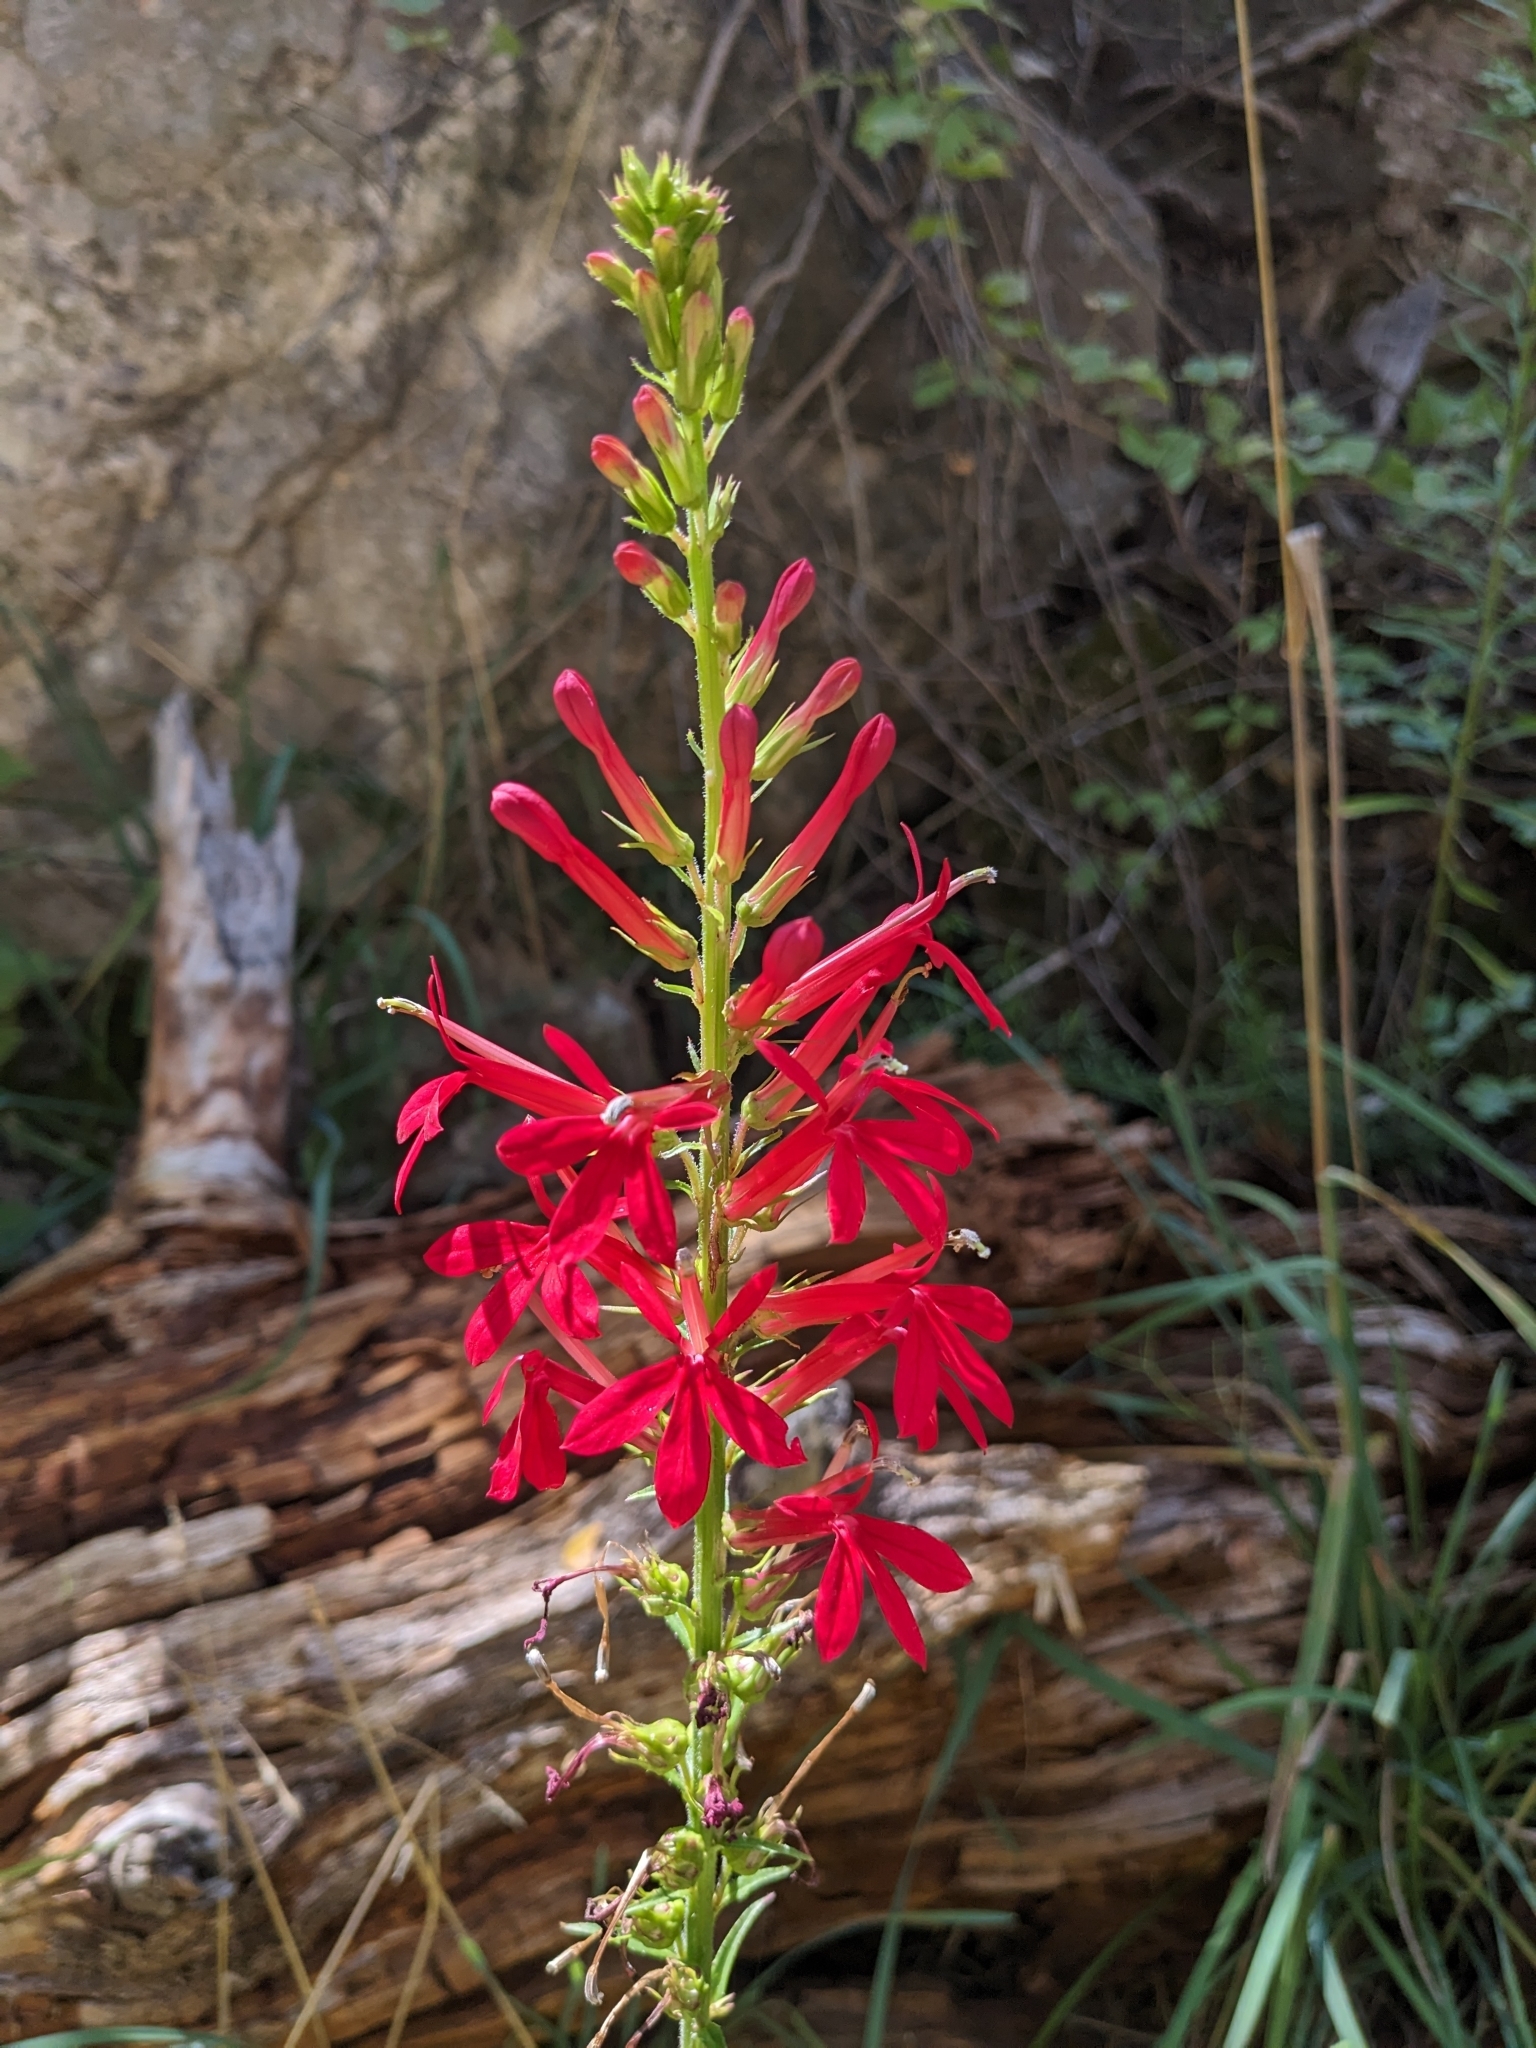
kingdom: Plantae
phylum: Tracheophyta
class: Magnoliopsida
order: Asterales
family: Campanulaceae
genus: Lobelia
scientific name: Lobelia cardinalis
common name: Cardinal flower
